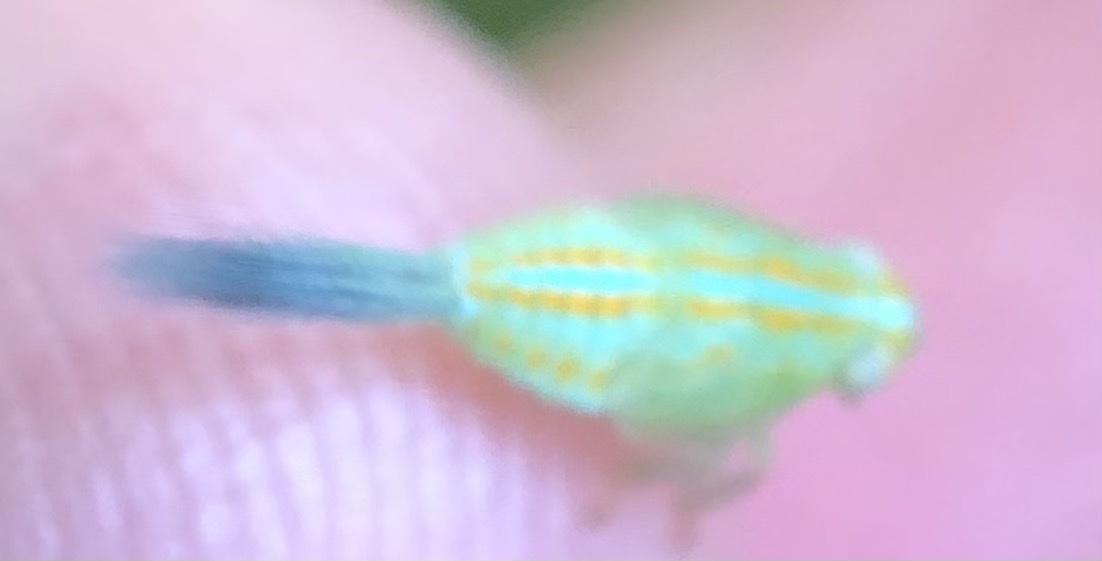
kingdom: Animalia
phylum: Arthropoda
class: Insecta
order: Hemiptera
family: Issidae
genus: Aplos
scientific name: Aplos simplex
